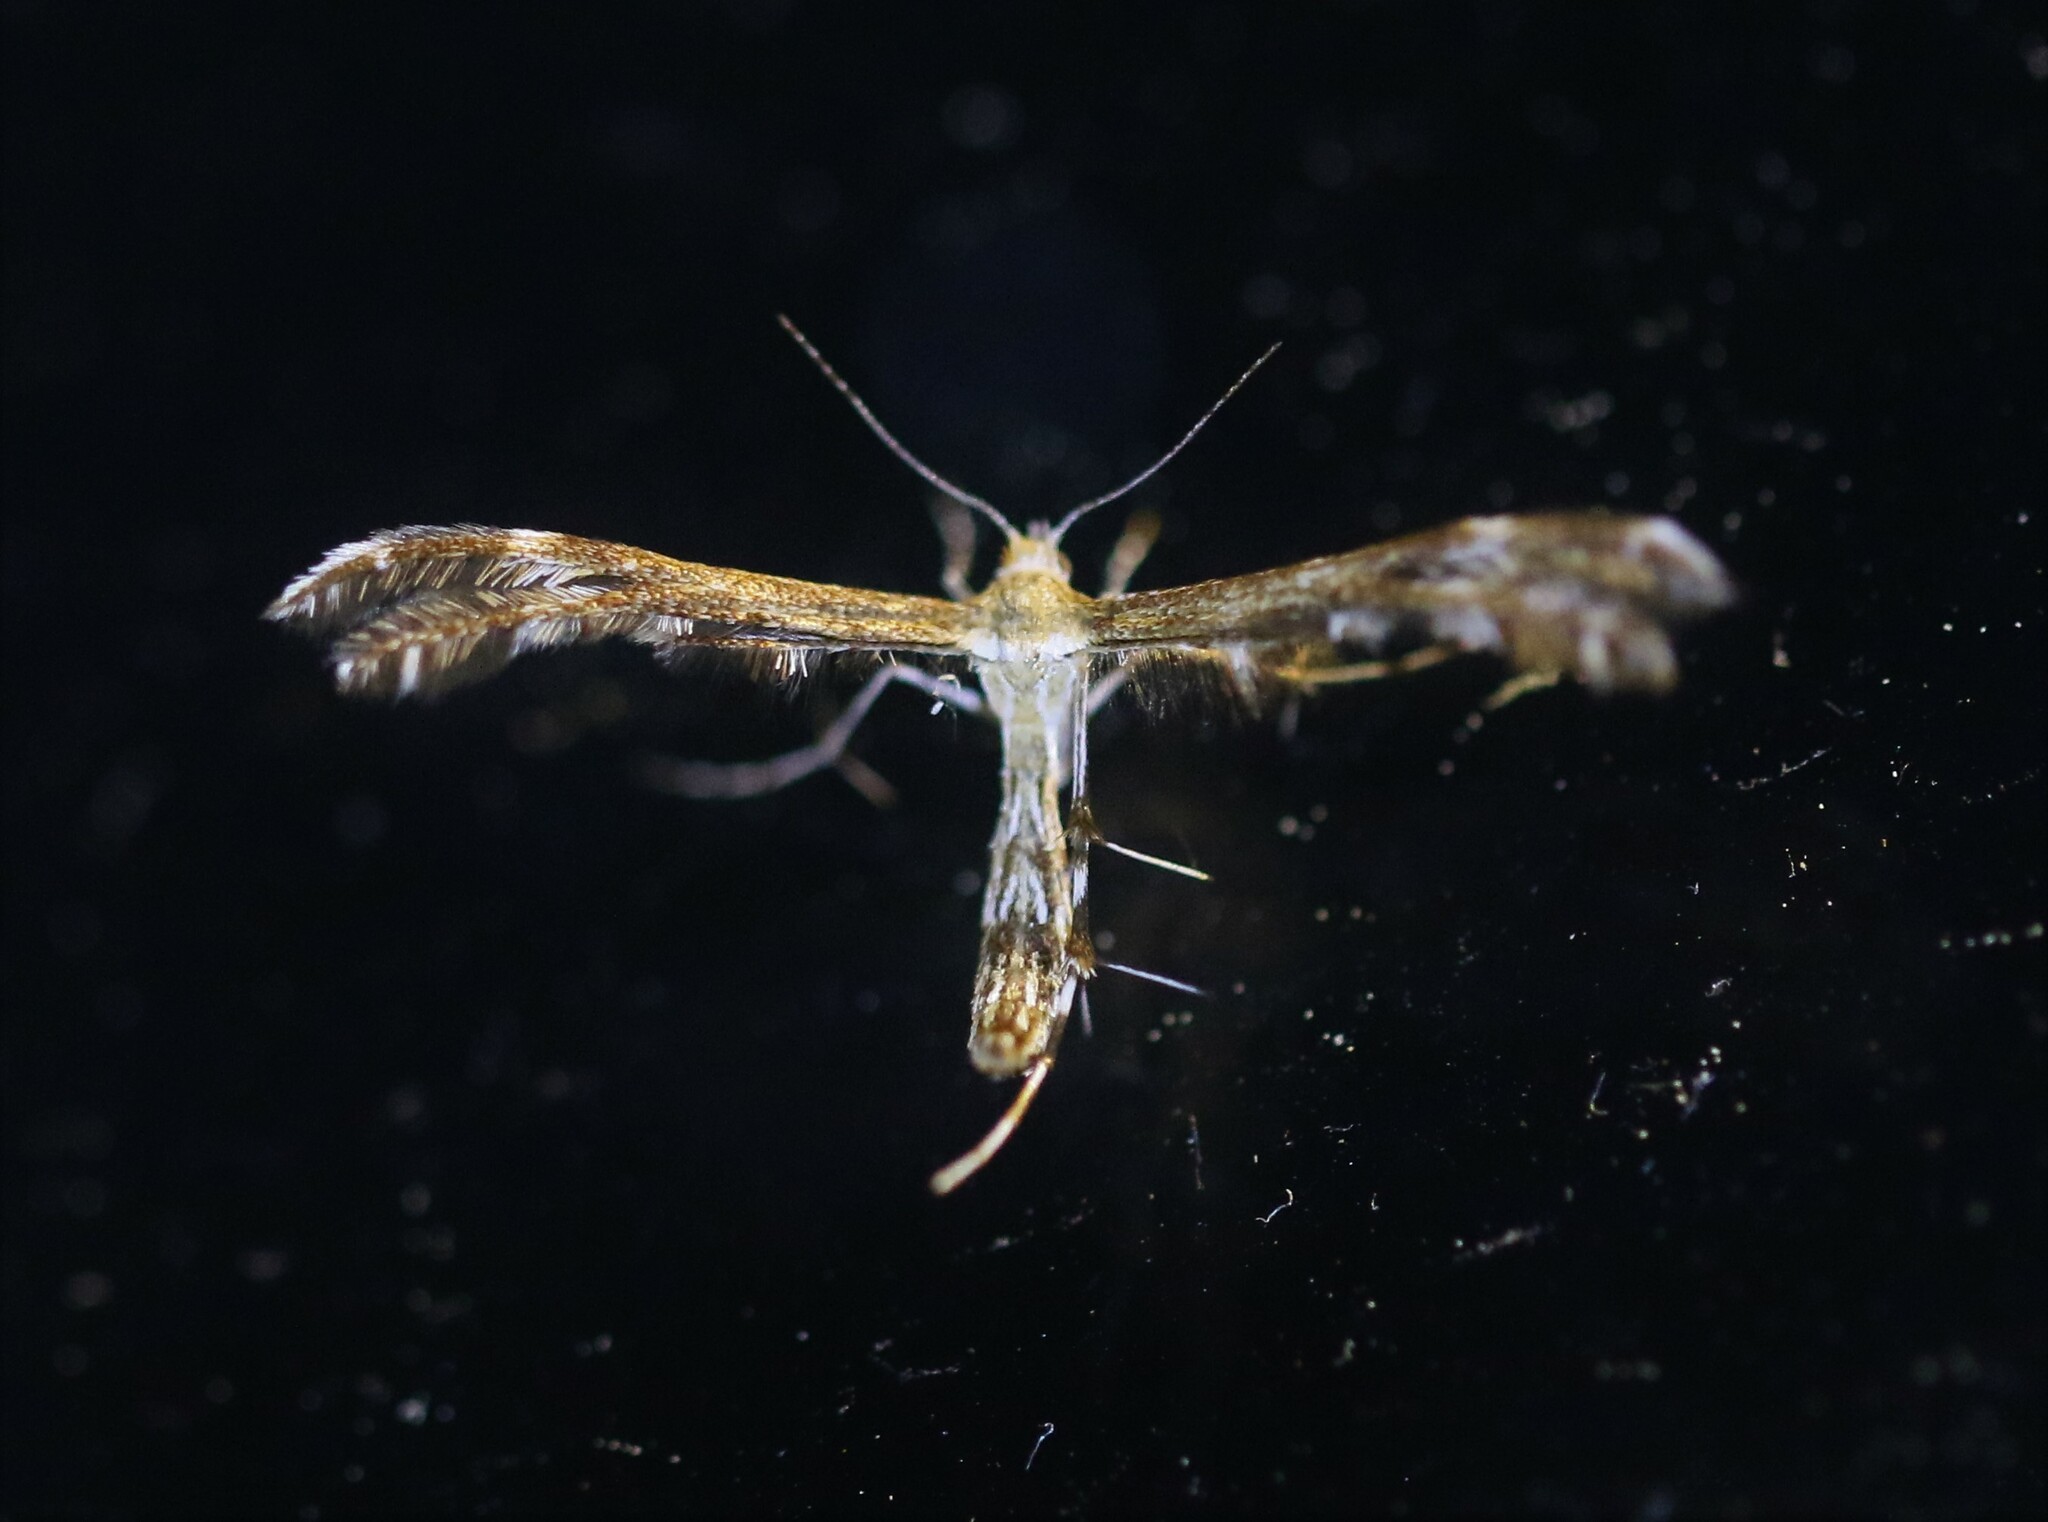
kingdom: Animalia
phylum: Arthropoda
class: Insecta
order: Lepidoptera
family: Pterophoridae
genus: Dejongia
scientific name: Dejongia lobidactylus
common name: Lobed plume moth
